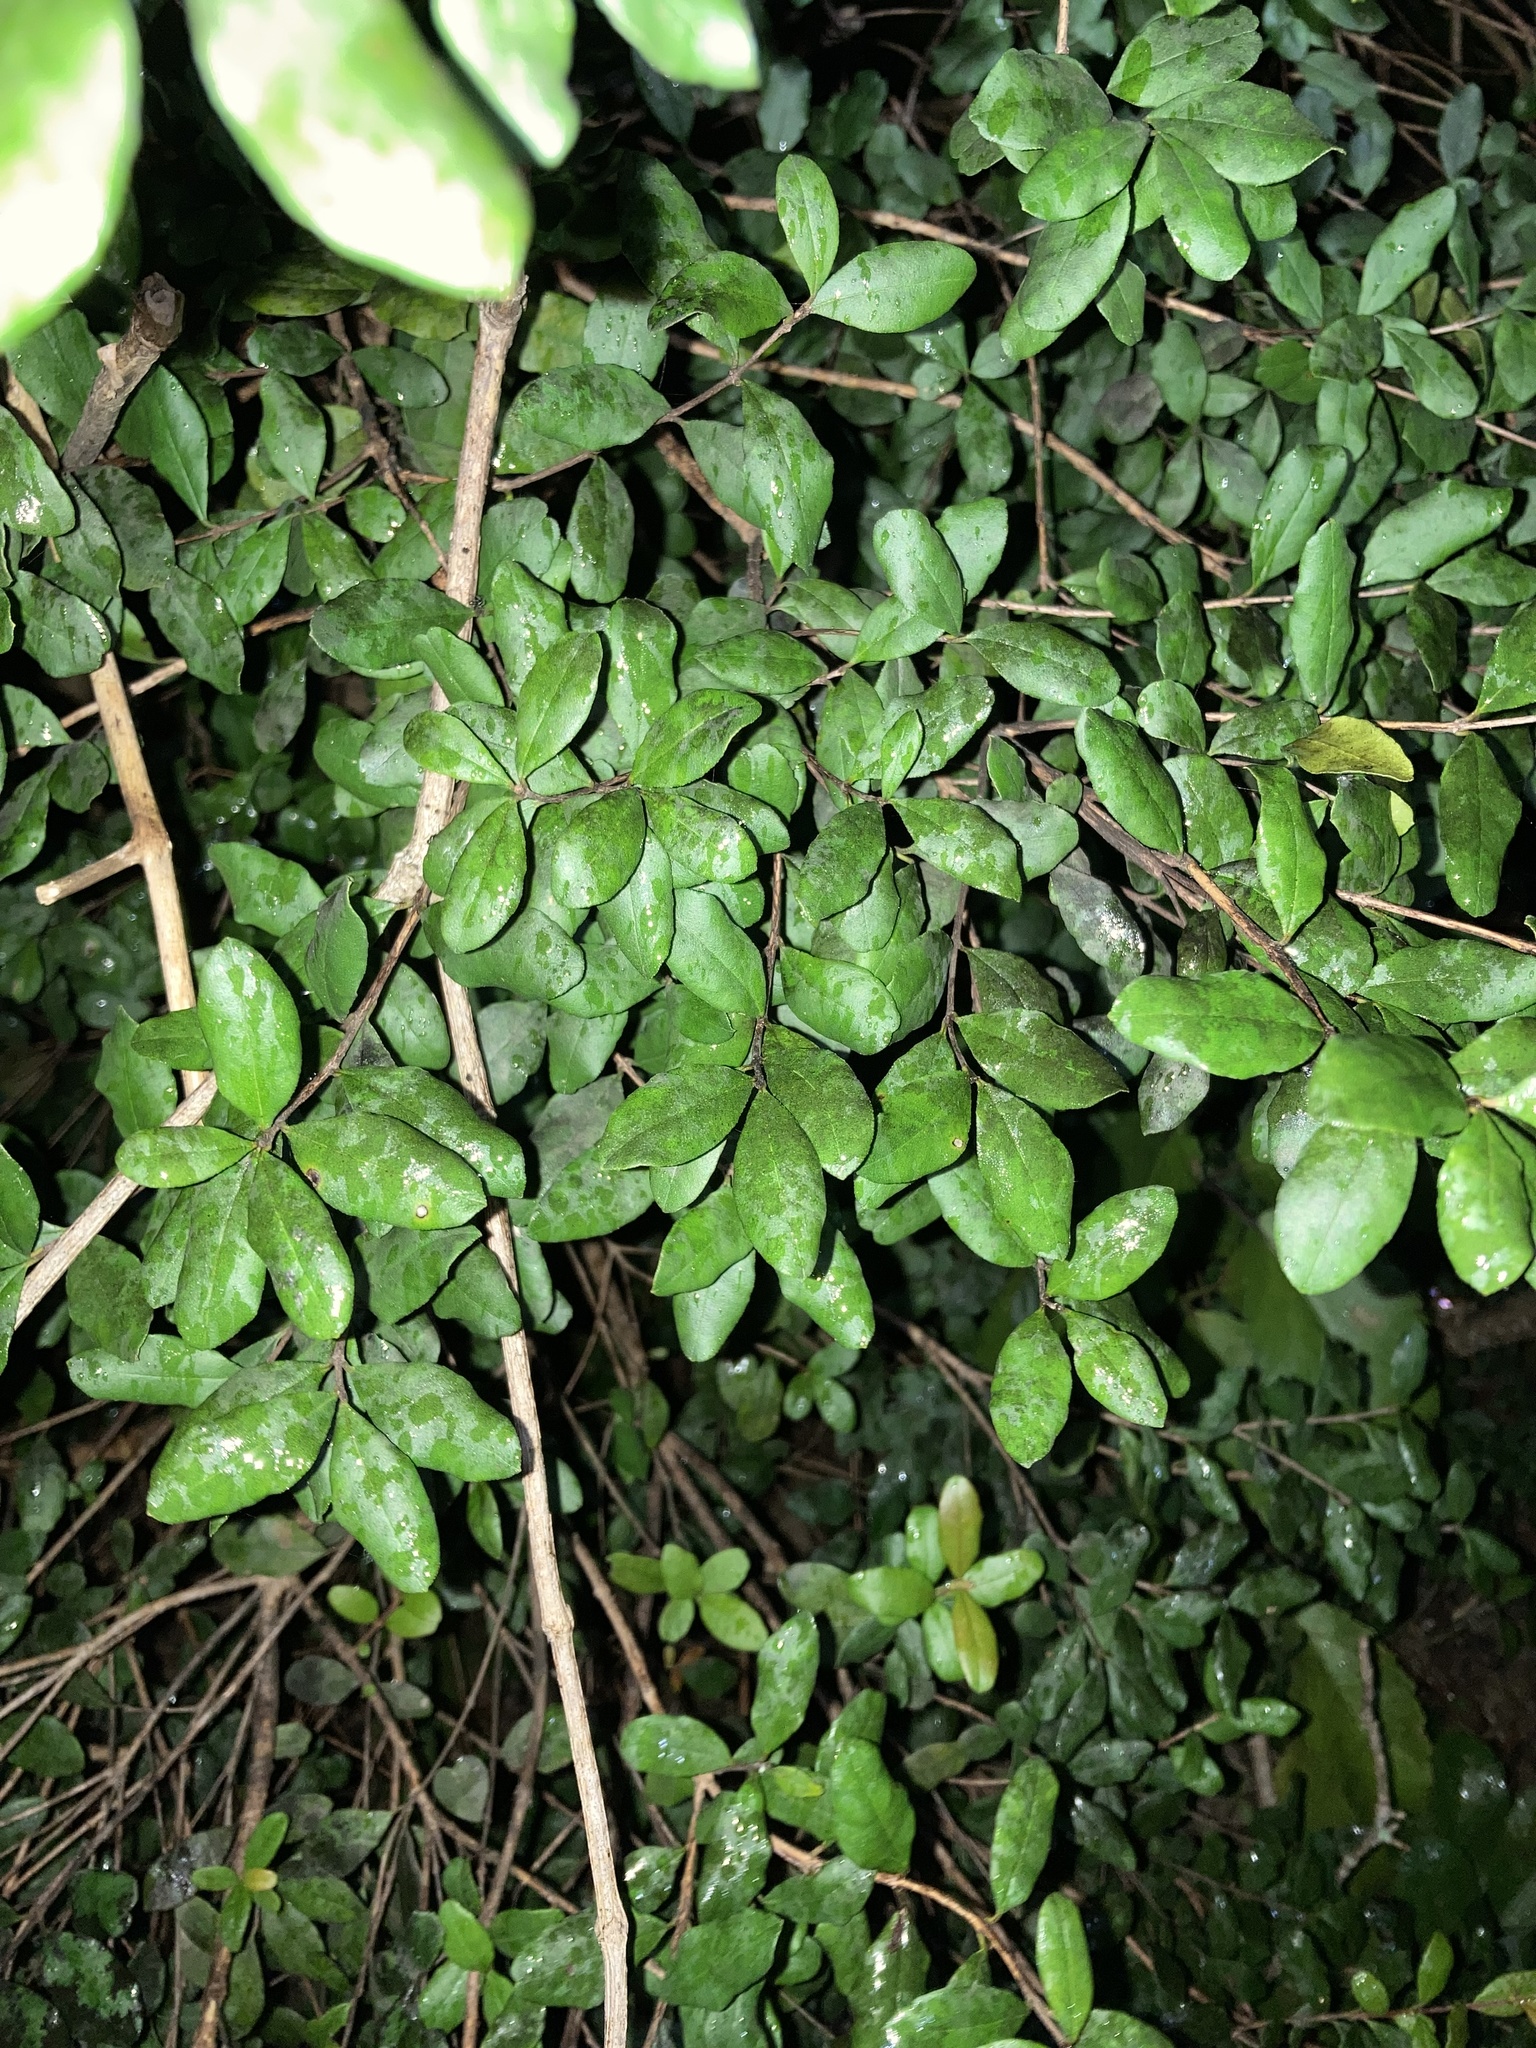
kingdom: Plantae
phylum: Tracheophyta
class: Magnoliopsida
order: Myrtales
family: Myrtaceae
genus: Myrcianthes
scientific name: Myrcianthes fragrans
